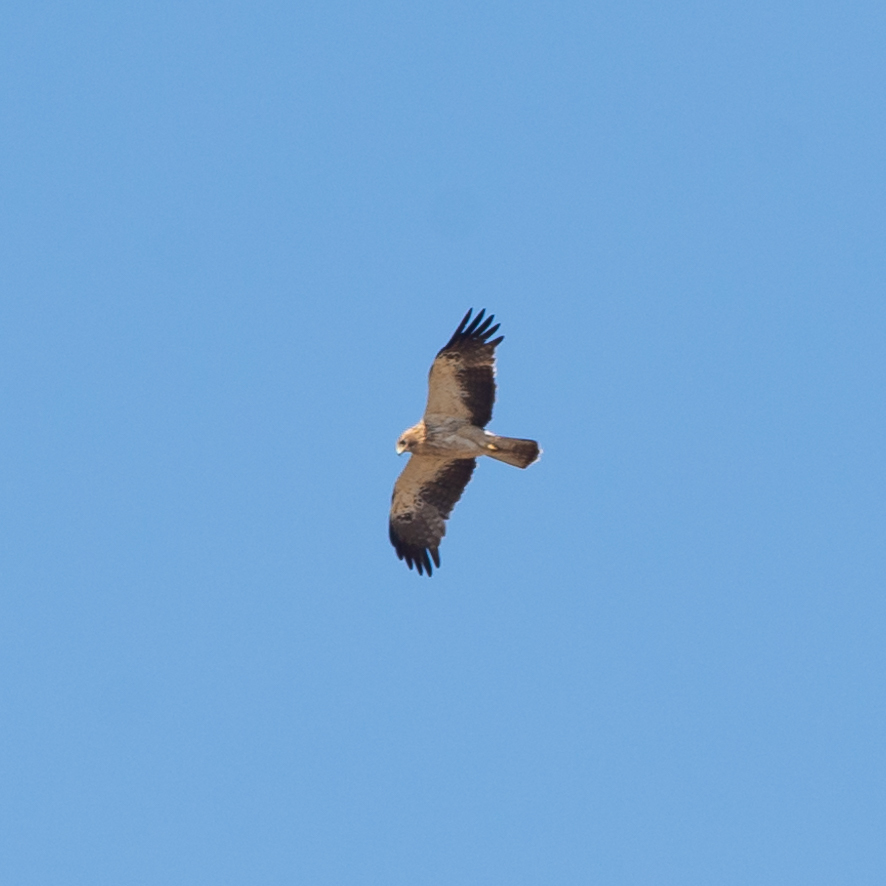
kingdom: Animalia
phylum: Chordata
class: Aves
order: Accipitriformes
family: Accipitridae
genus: Hieraaetus
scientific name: Hieraaetus pennatus
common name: Booted eagle
